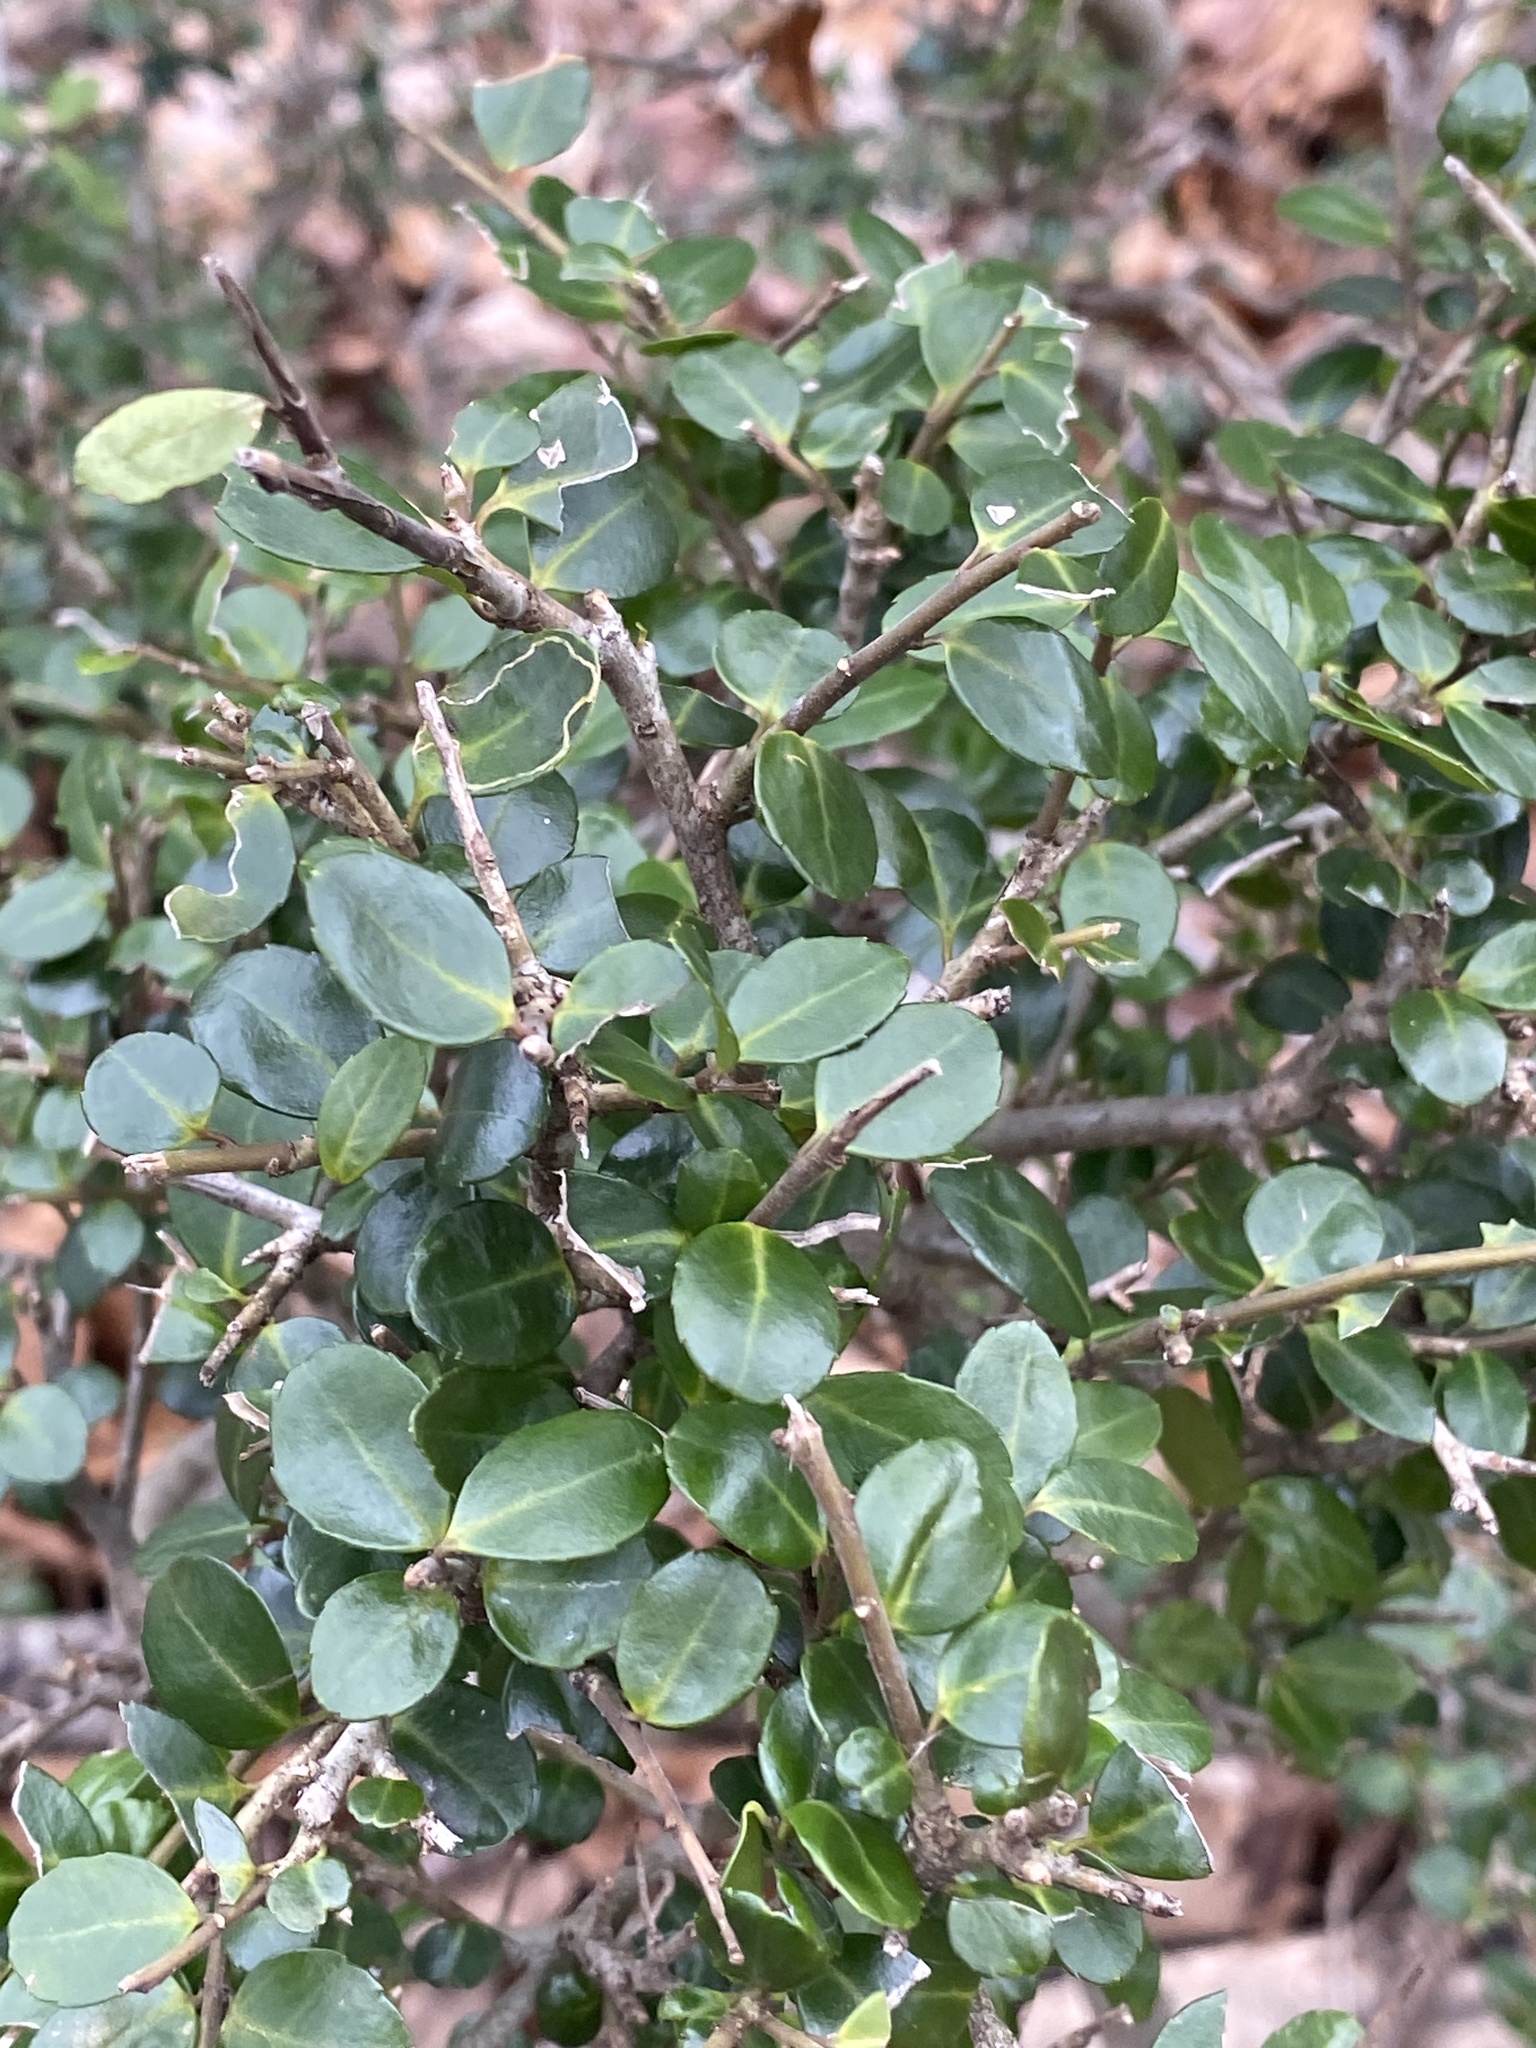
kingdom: Plantae
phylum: Tracheophyta
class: Magnoliopsida
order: Aquifoliales
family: Aquifoliaceae
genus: Ilex
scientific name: Ilex crenata
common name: Japanese holly
